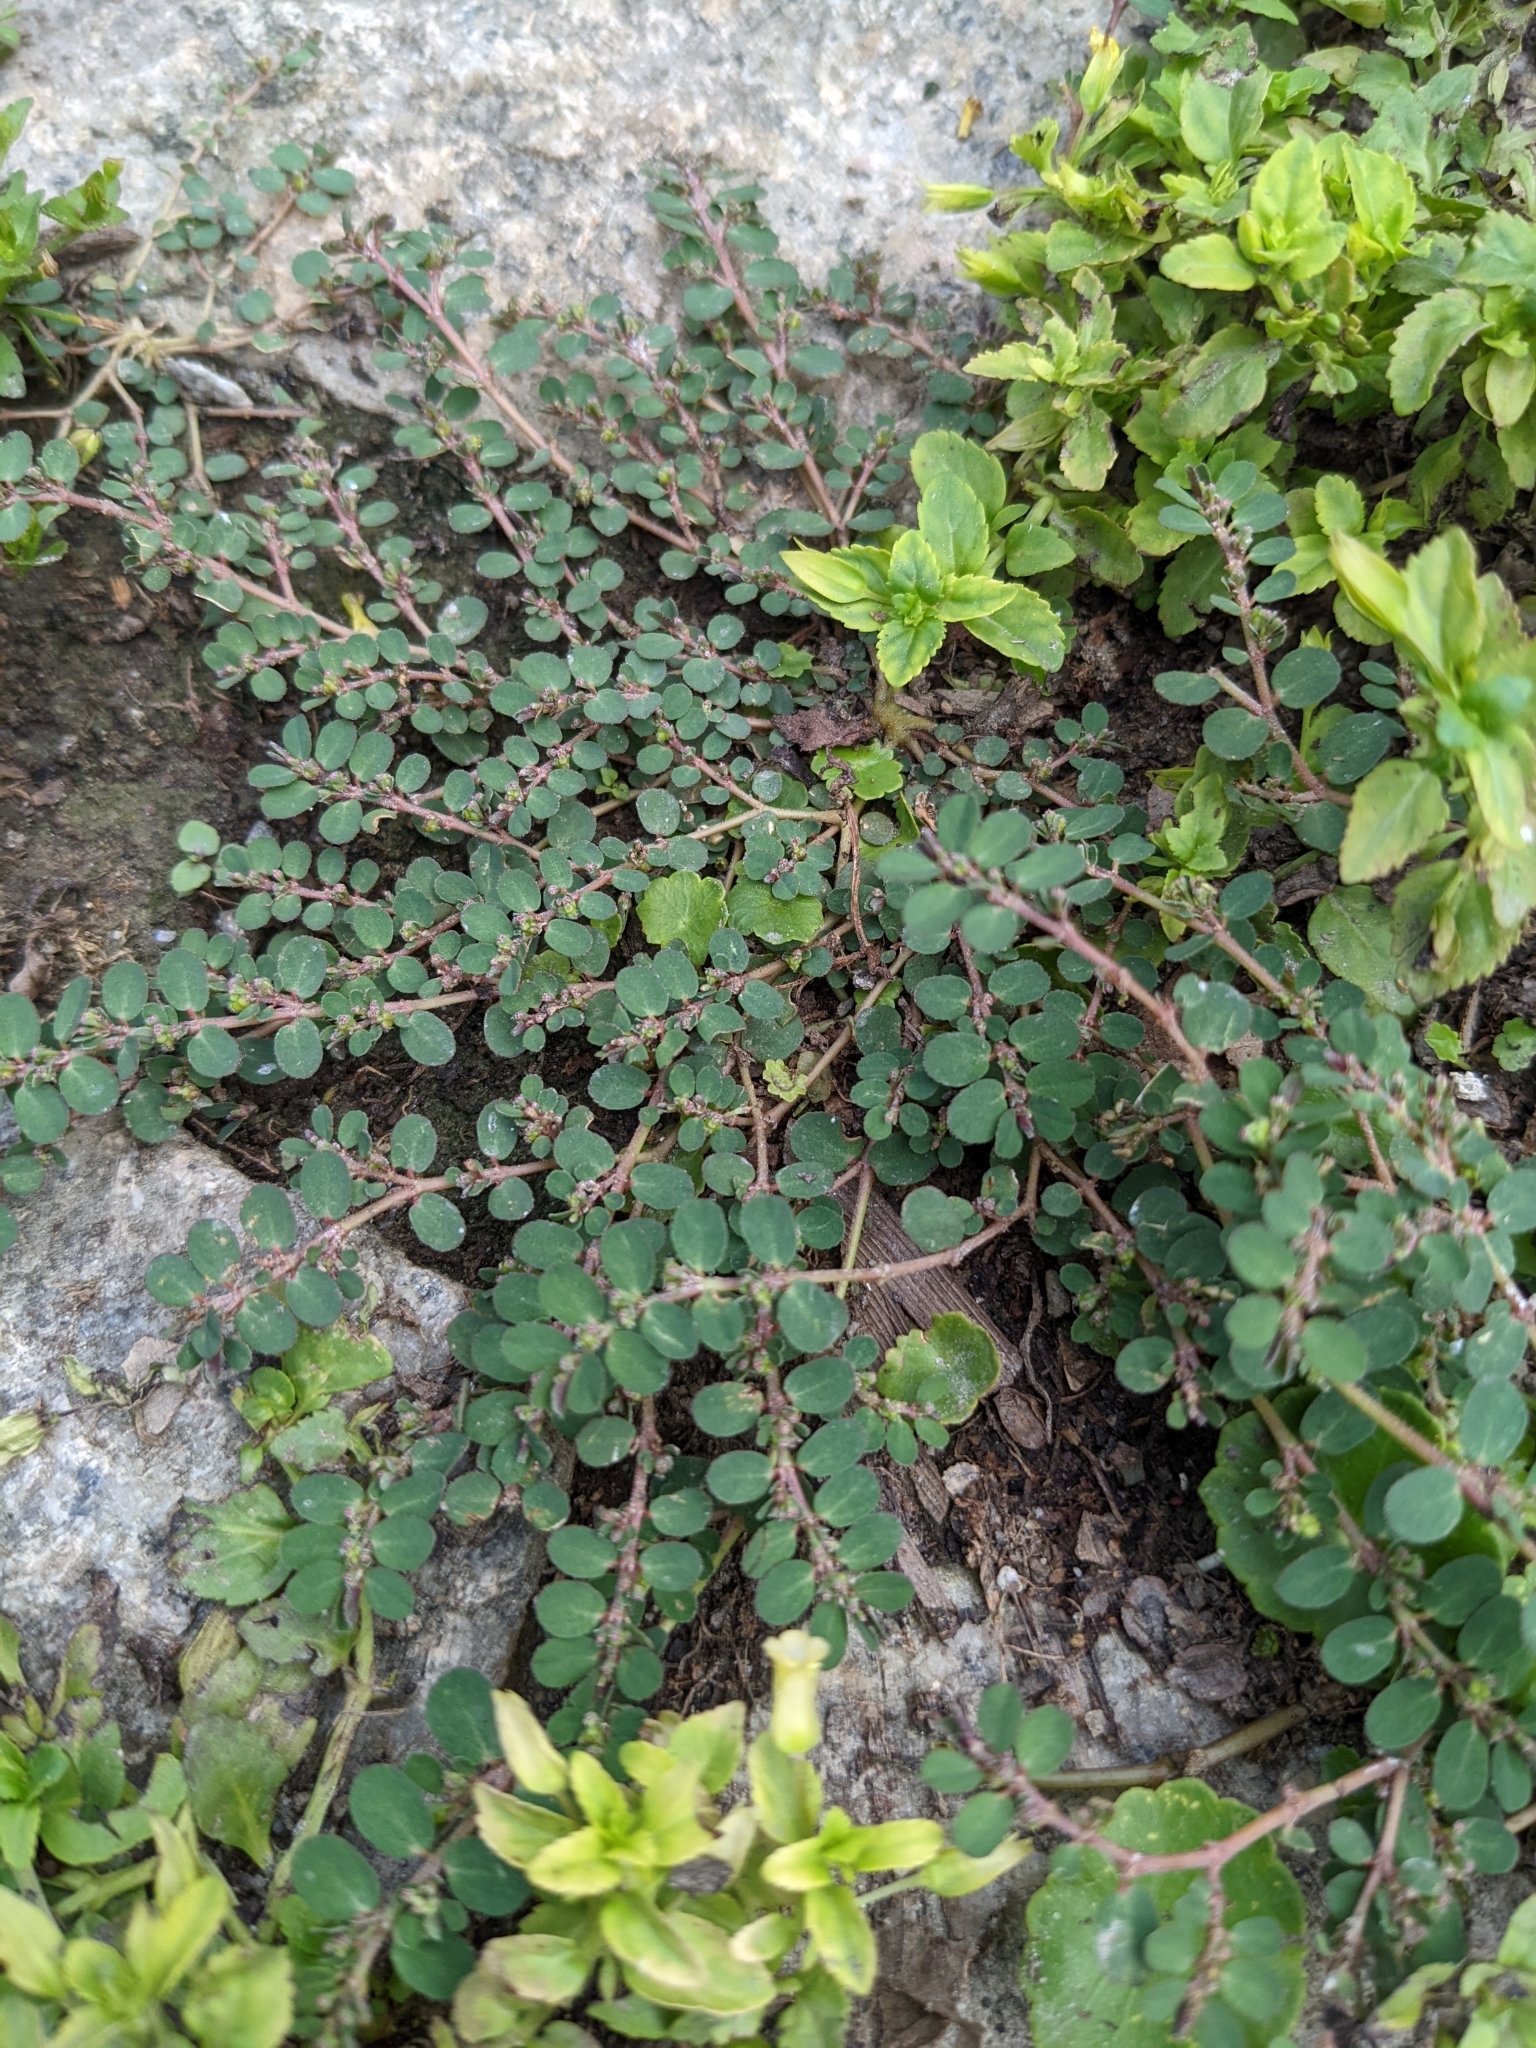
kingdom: Plantae
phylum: Tracheophyta
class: Magnoliopsida
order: Malpighiales
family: Euphorbiaceae
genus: Euphorbia
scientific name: Euphorbia prostrata
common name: Prostrate sandmat
